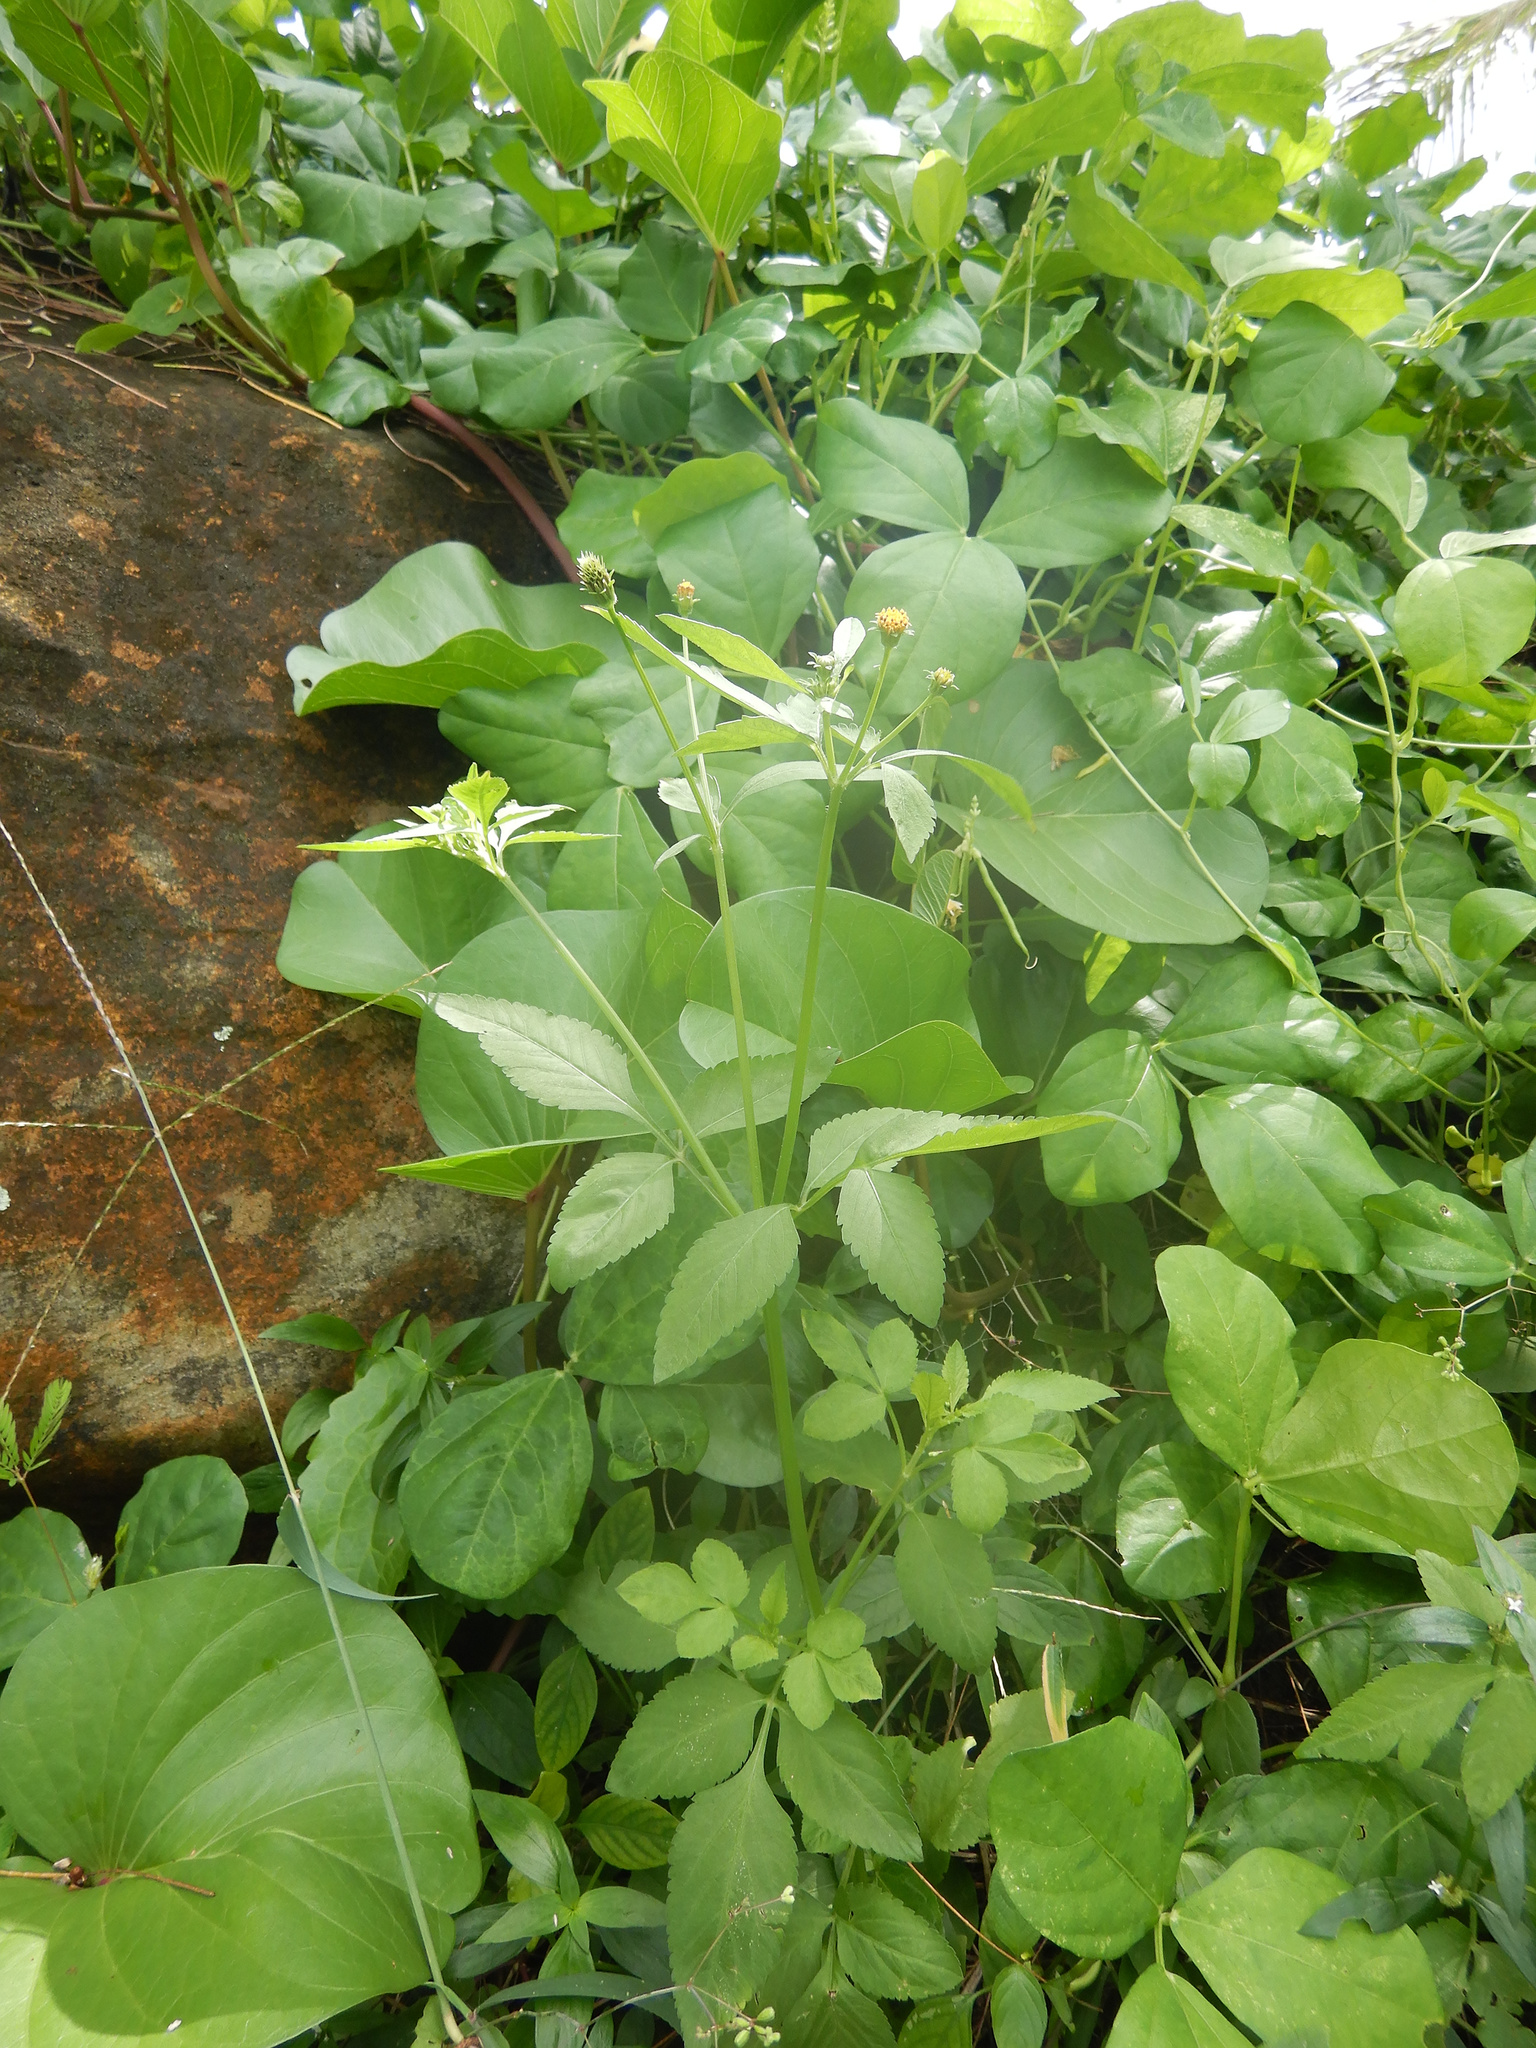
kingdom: Plantae
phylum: Tracheophyta
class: Magnoliopsida
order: Asterales
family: Asteraceae
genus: Bidens
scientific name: Bidens pilosa
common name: Black-jack
